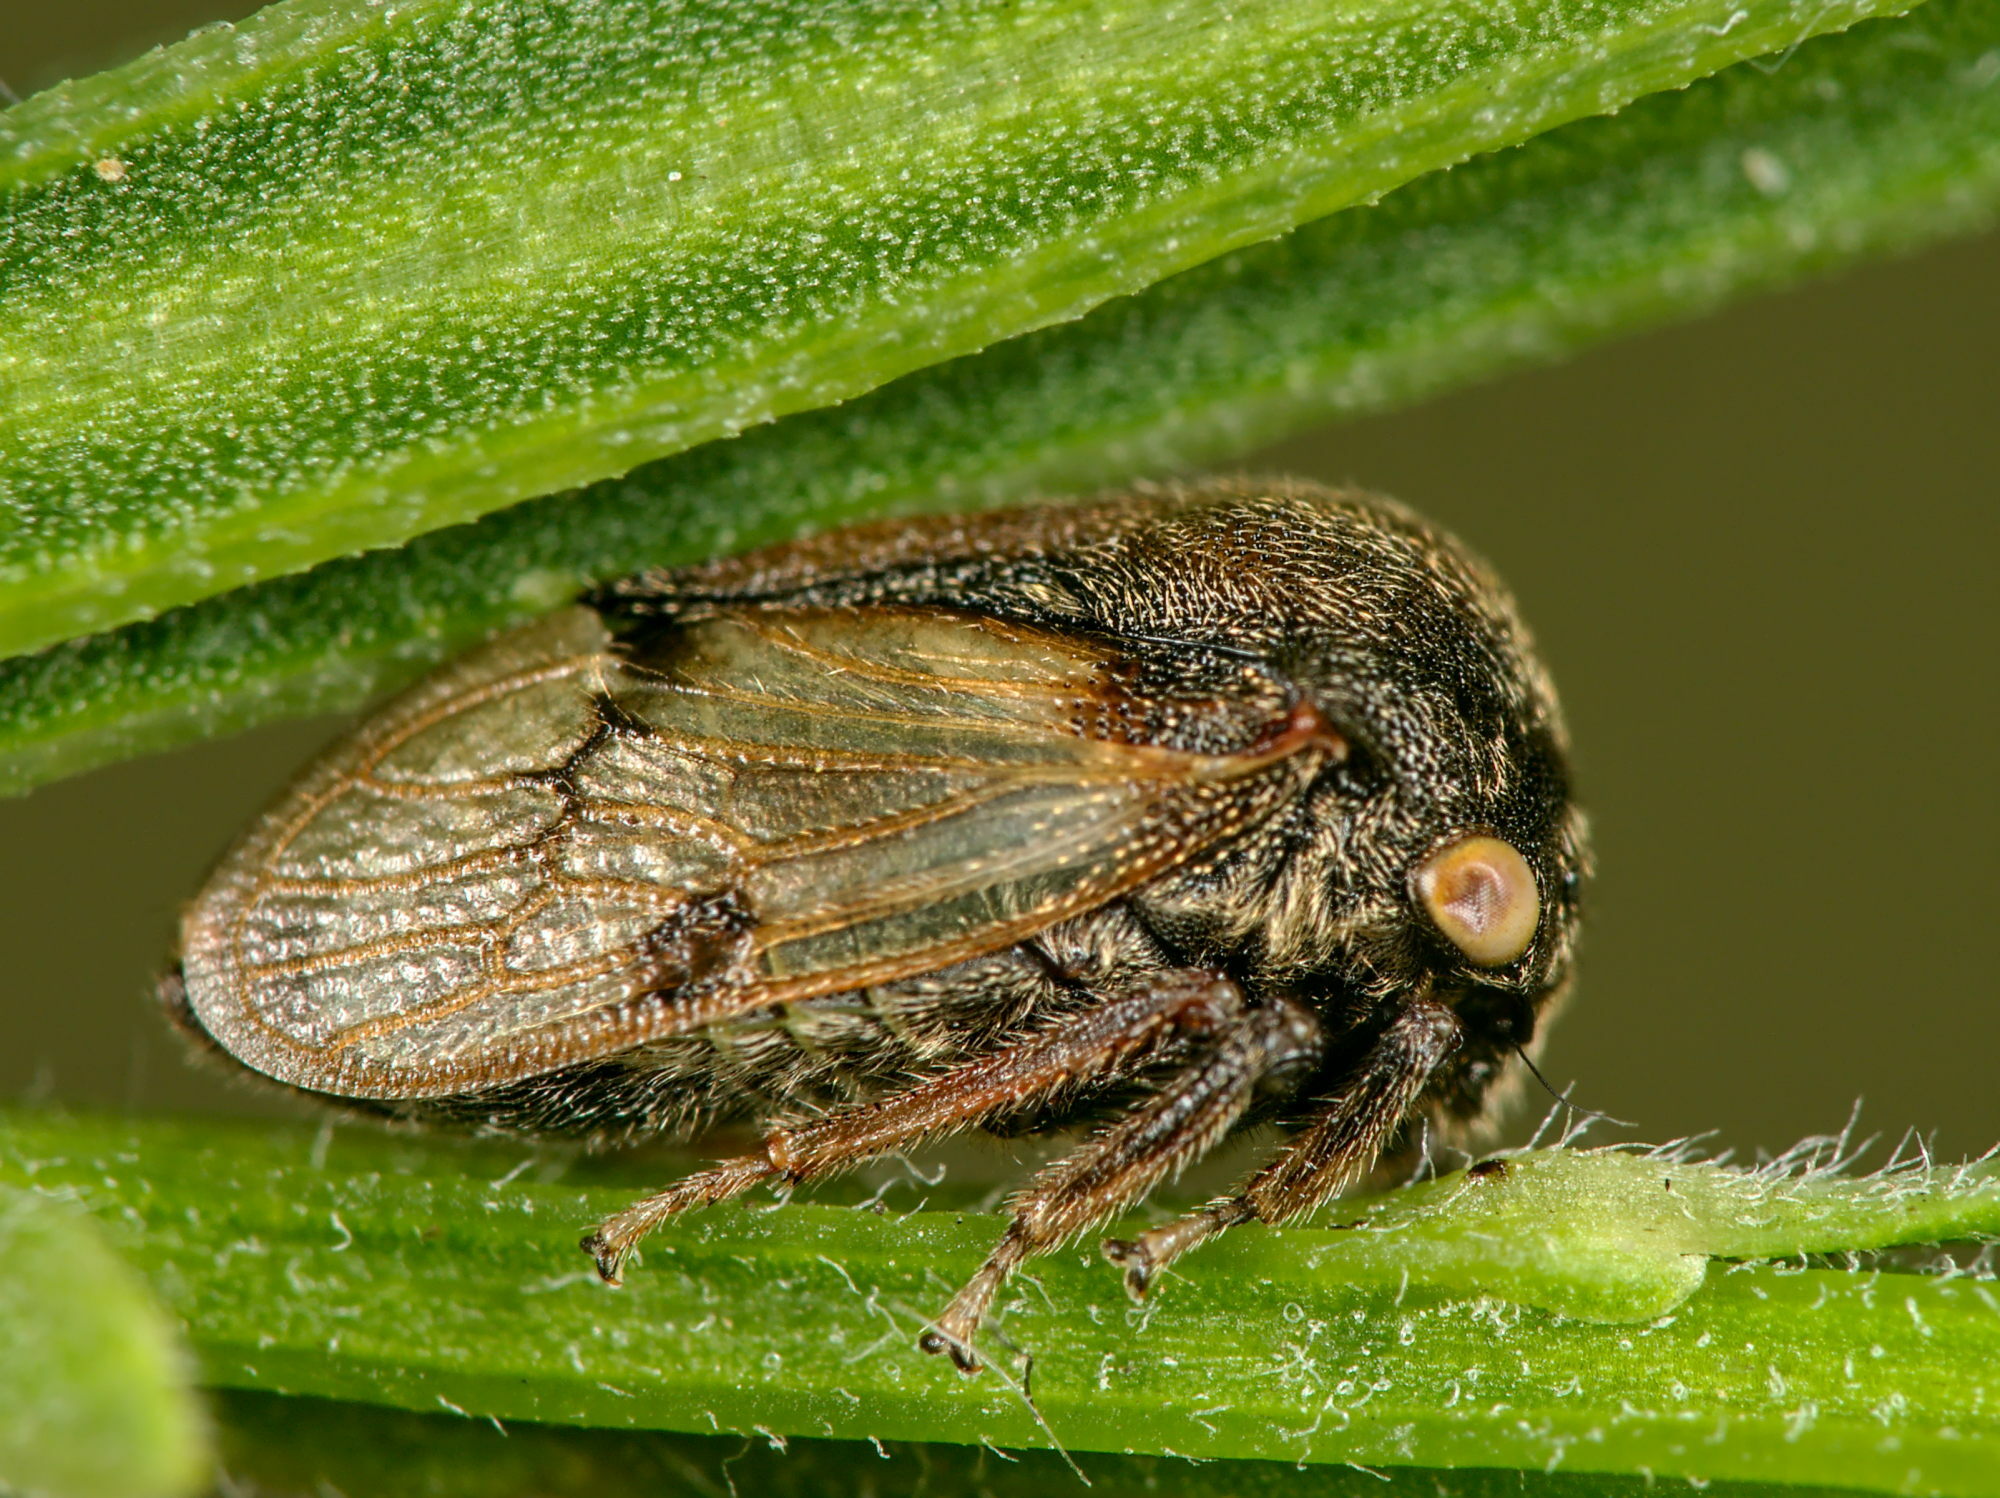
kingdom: Animalia
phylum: Arthropoda
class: Insecta
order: Hemiptera
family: Membracidae
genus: Gargara
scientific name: Gargara genistae
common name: Treehopper
